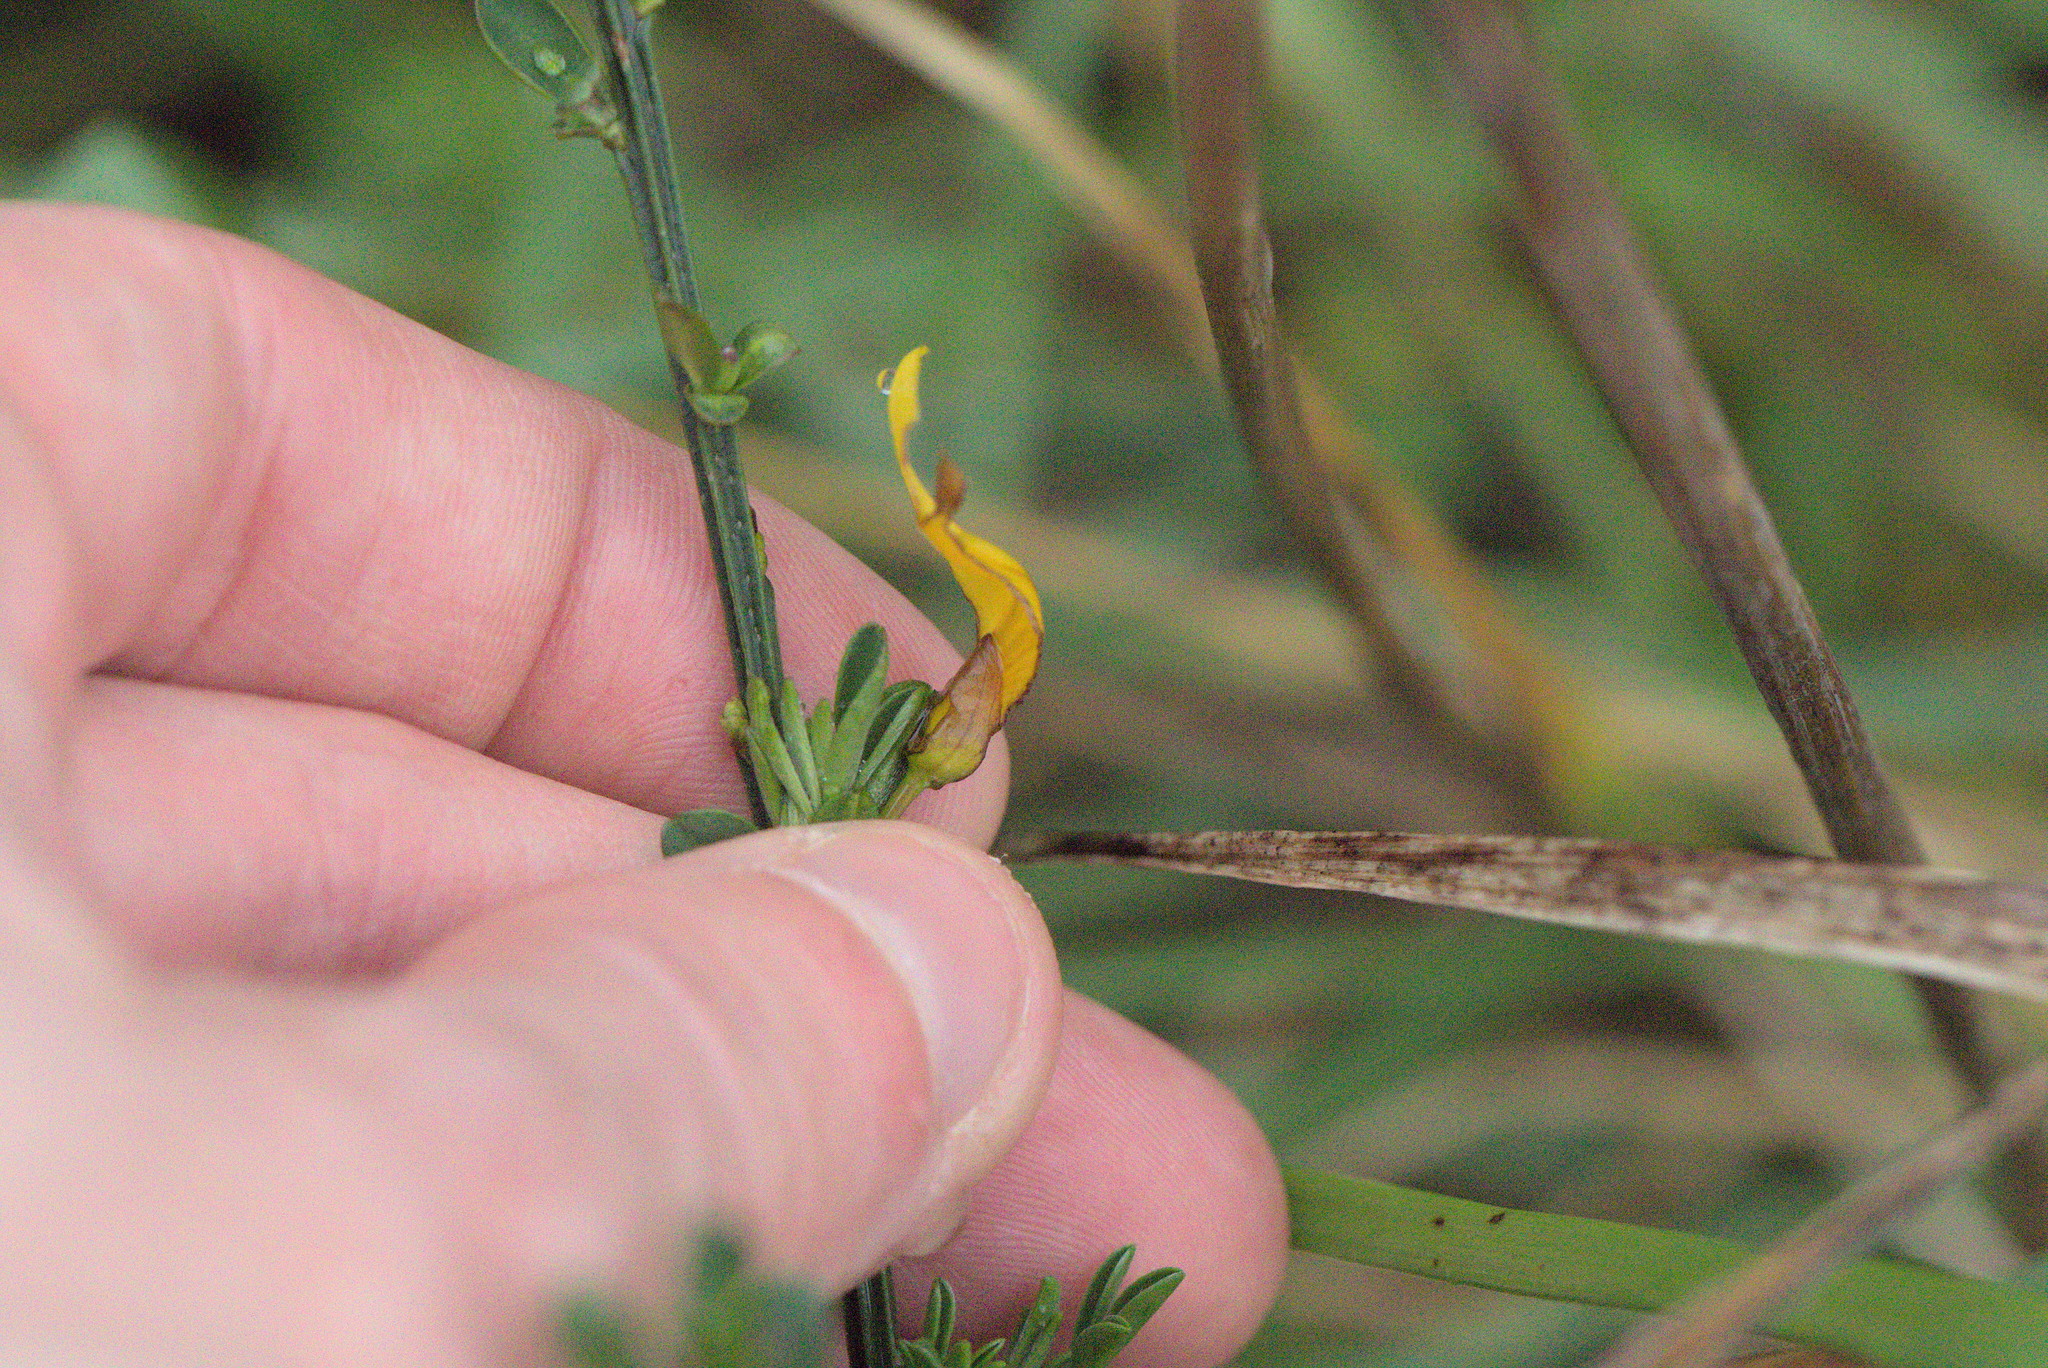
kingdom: Plantae
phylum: Tracheophyta
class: Magnoliopsida
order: Fabales
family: Fabaceae
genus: Cytisus
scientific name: Cytisus scoparius
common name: Scotch broom
